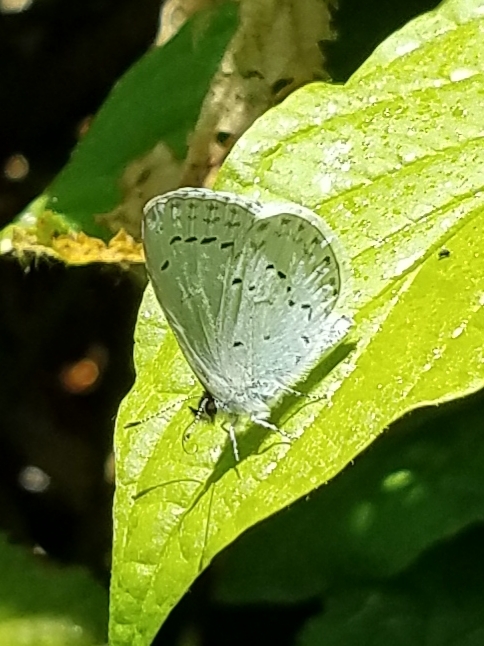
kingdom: Animalia
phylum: Arthropoda
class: Insecta
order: Lepidoptera
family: Lycaenidae
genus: Celastrina
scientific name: Celastrina ladon
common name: Spring azure
